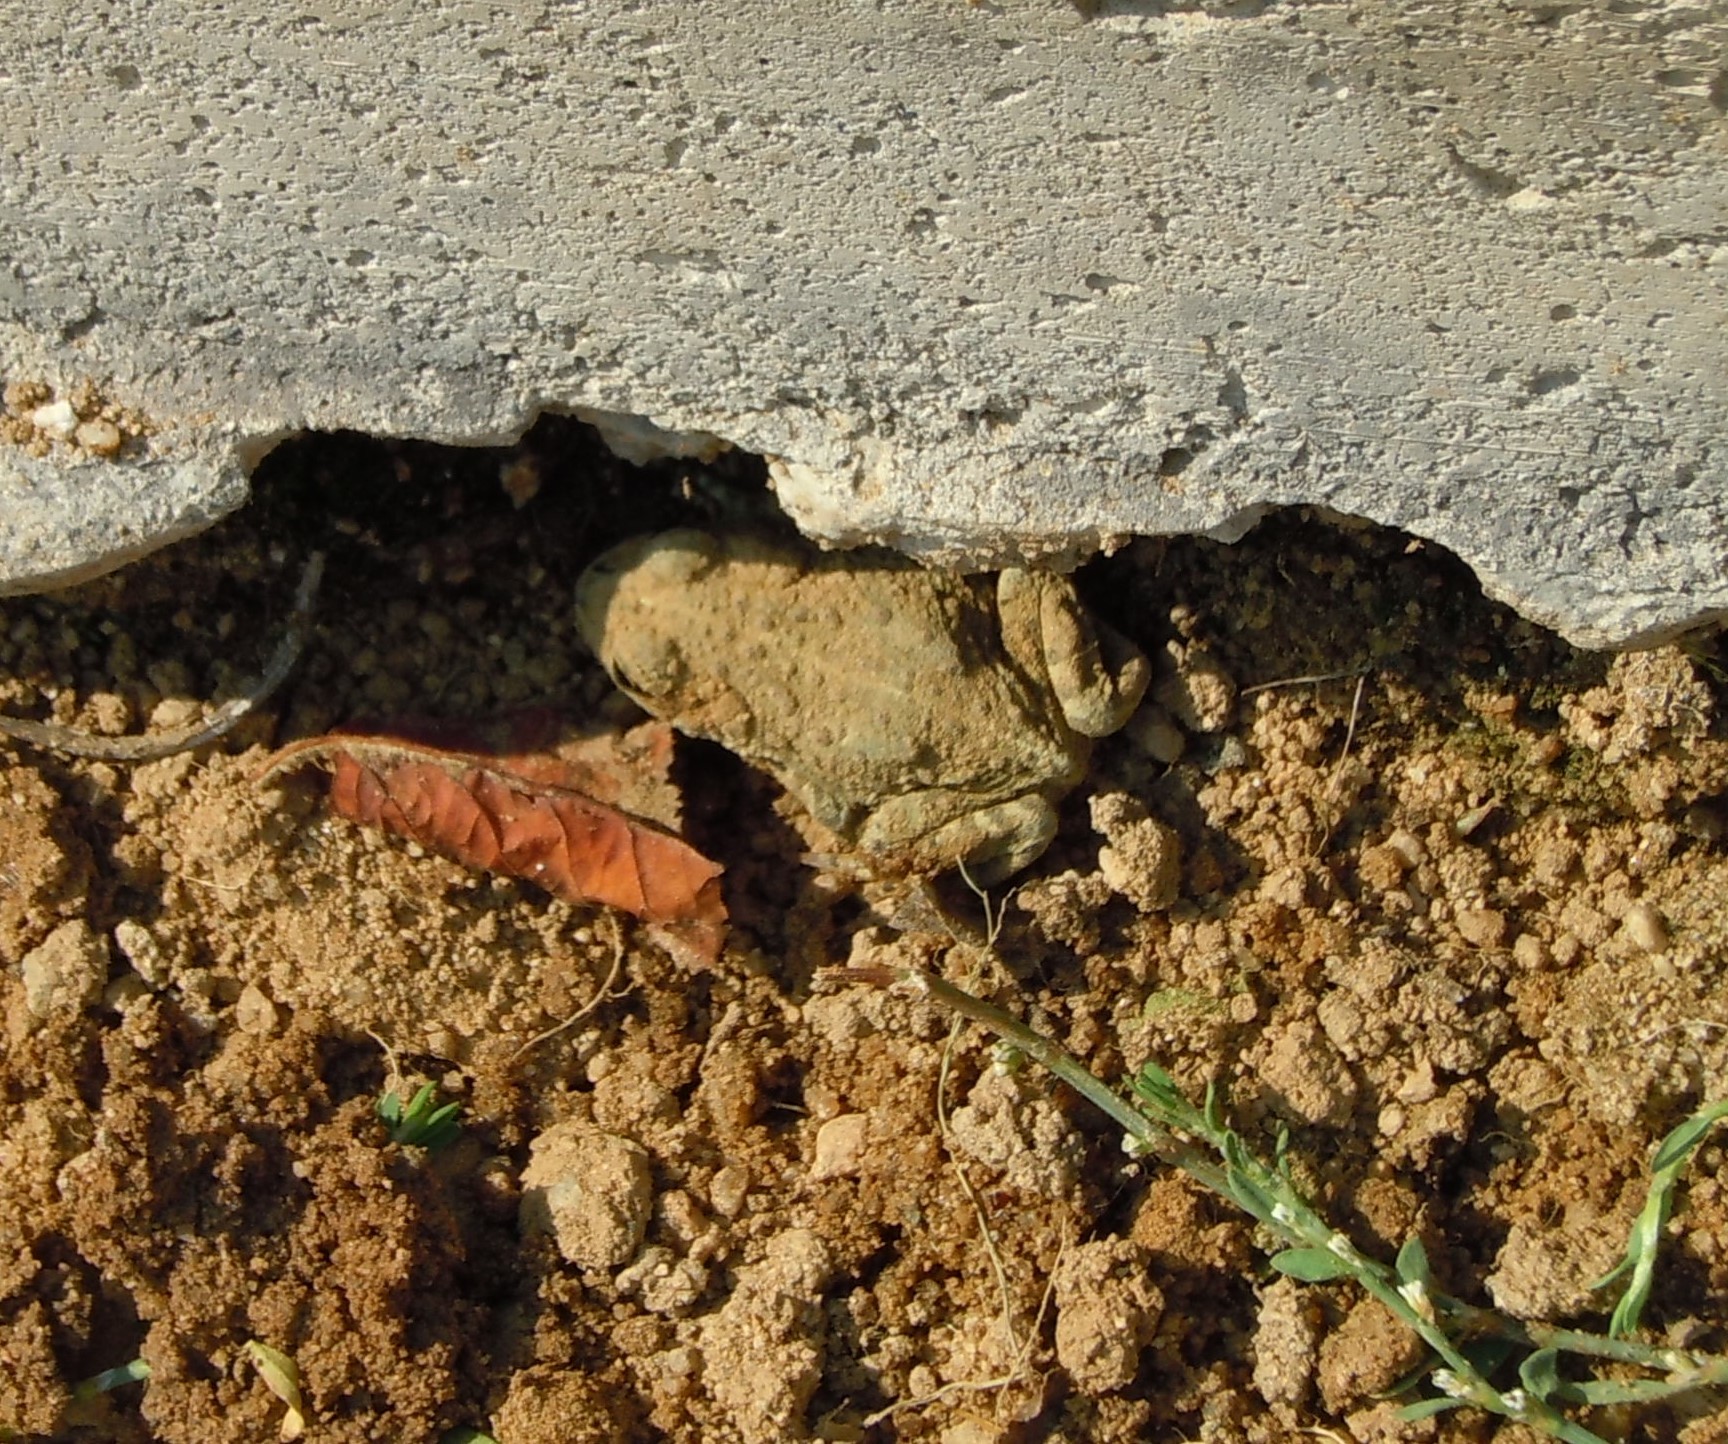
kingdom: Animalia
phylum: Chordata
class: Amphibia
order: Anura
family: Bufonidae
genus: Anaxyrus
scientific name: Anaxyrus boreas
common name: Western toad
